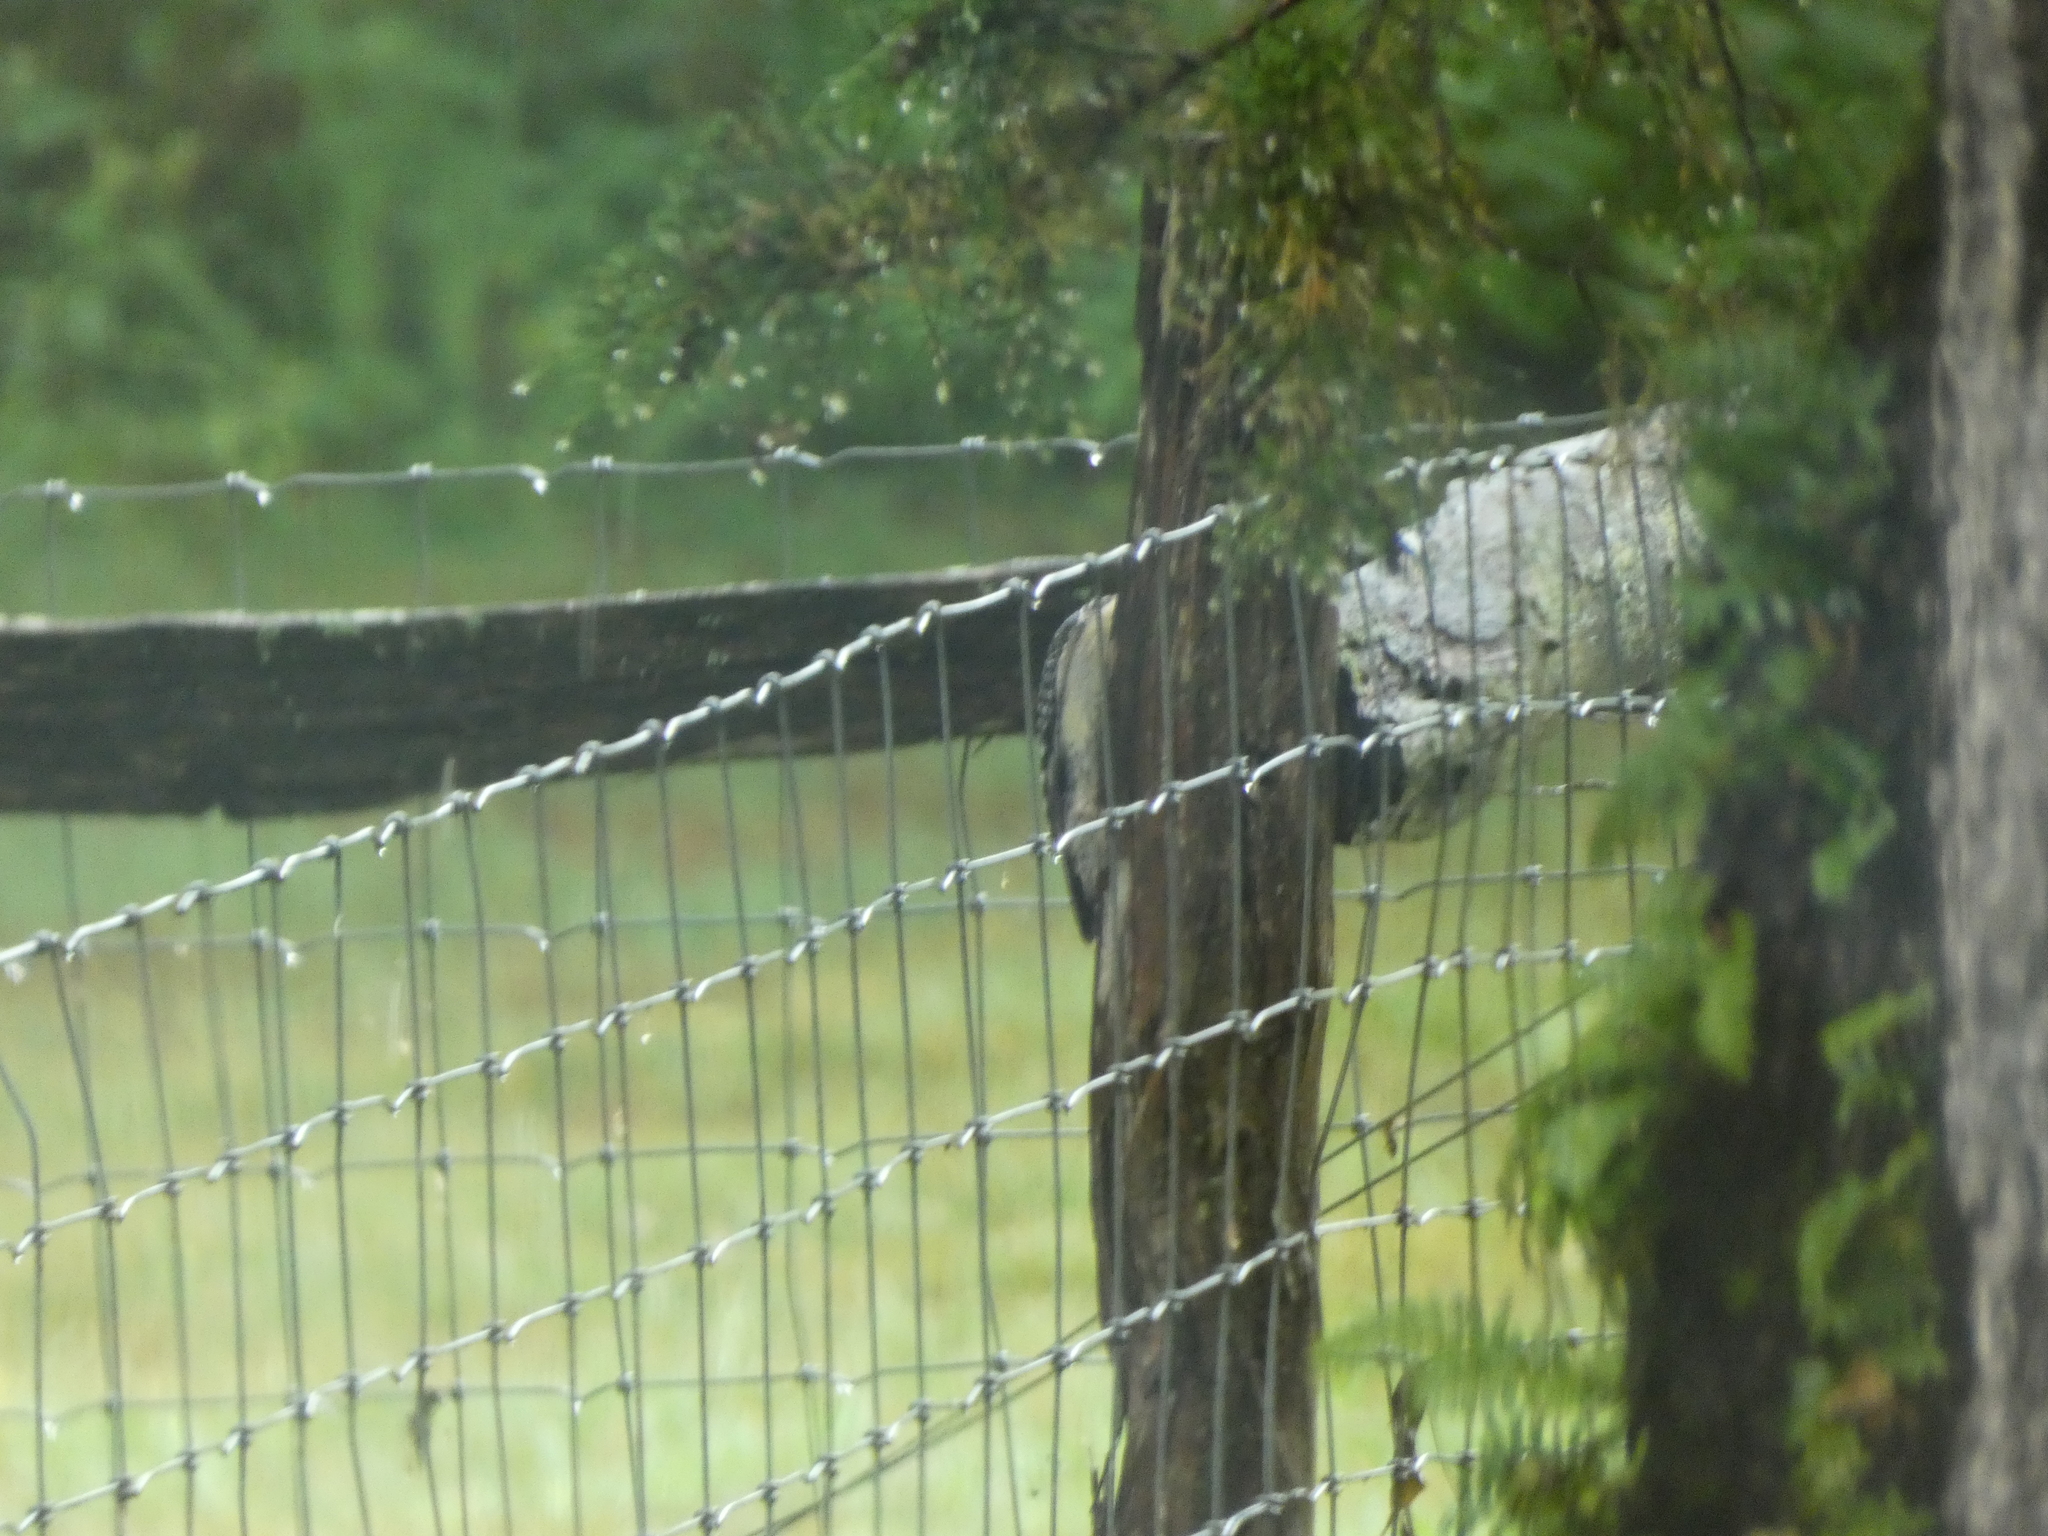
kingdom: Animalia
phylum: Chordata
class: Aves
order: Piciformes
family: Picidae
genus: Melanerpes
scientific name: Melanerpes carolinus
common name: Red-bellied woodpecker
